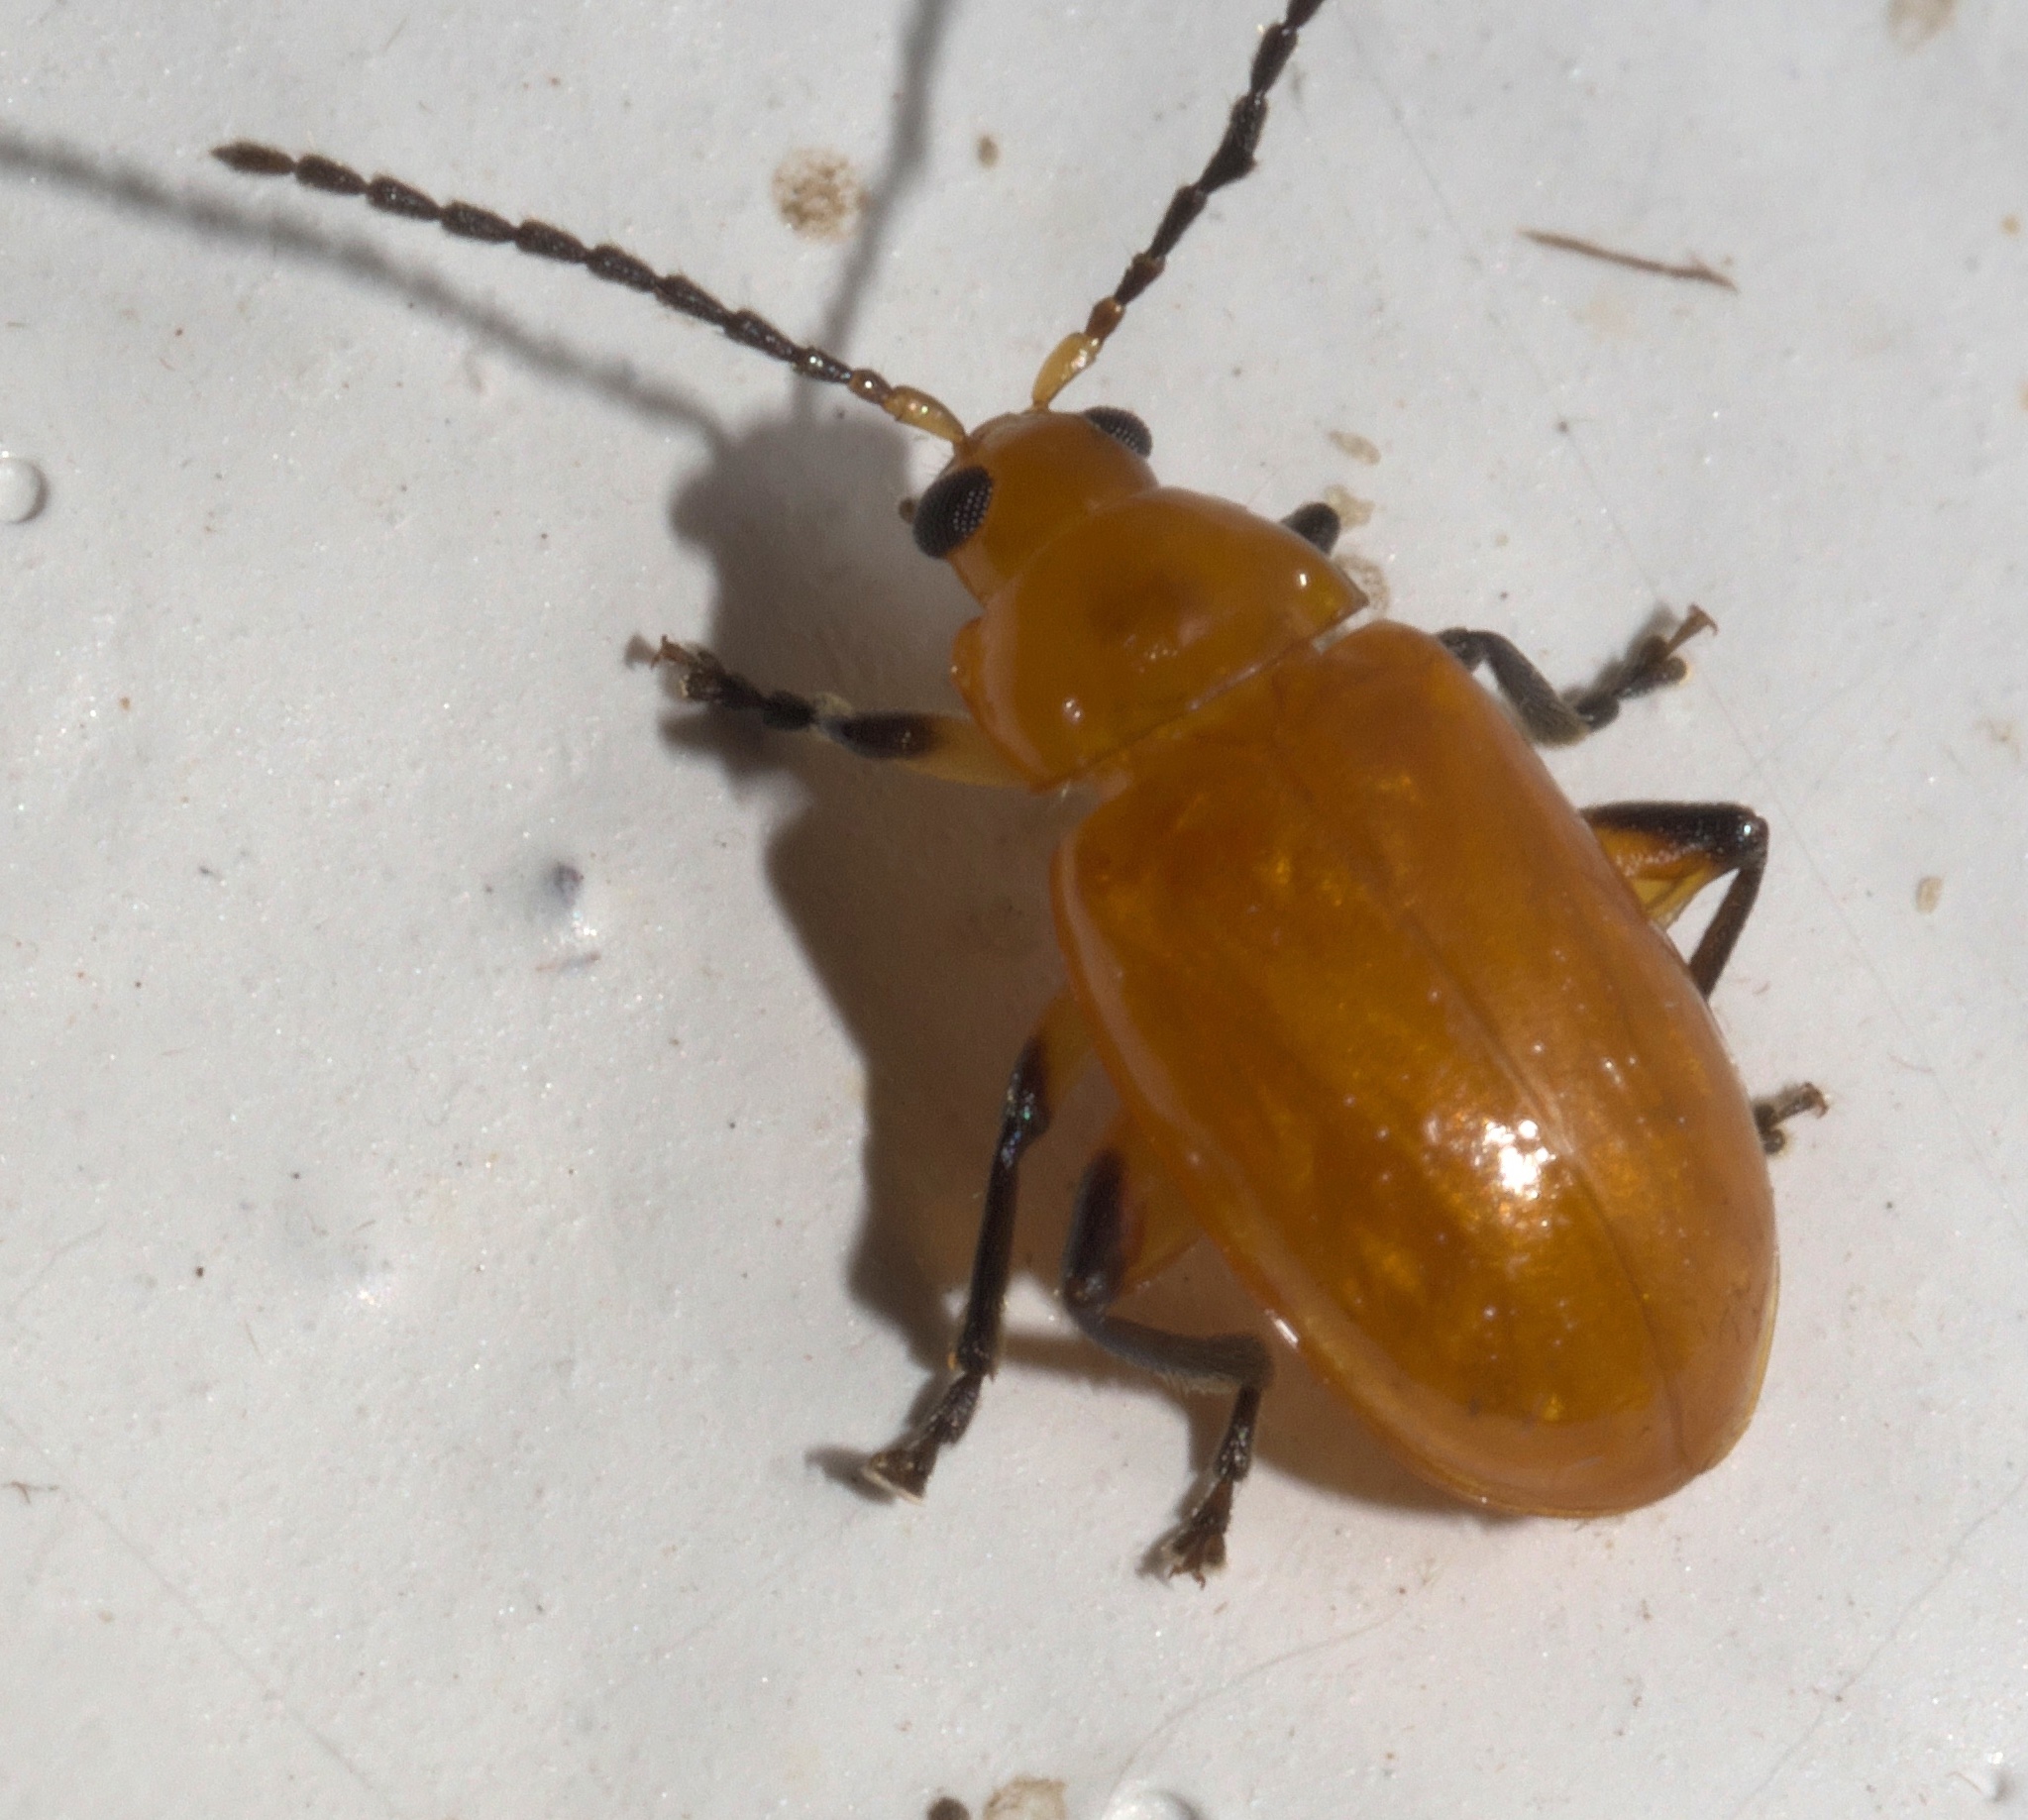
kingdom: Animalia
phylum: Arthropoda
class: Insecta
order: Coleoptera
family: Chrysomelidae
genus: Parchicola
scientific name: Parchicola tibialis
